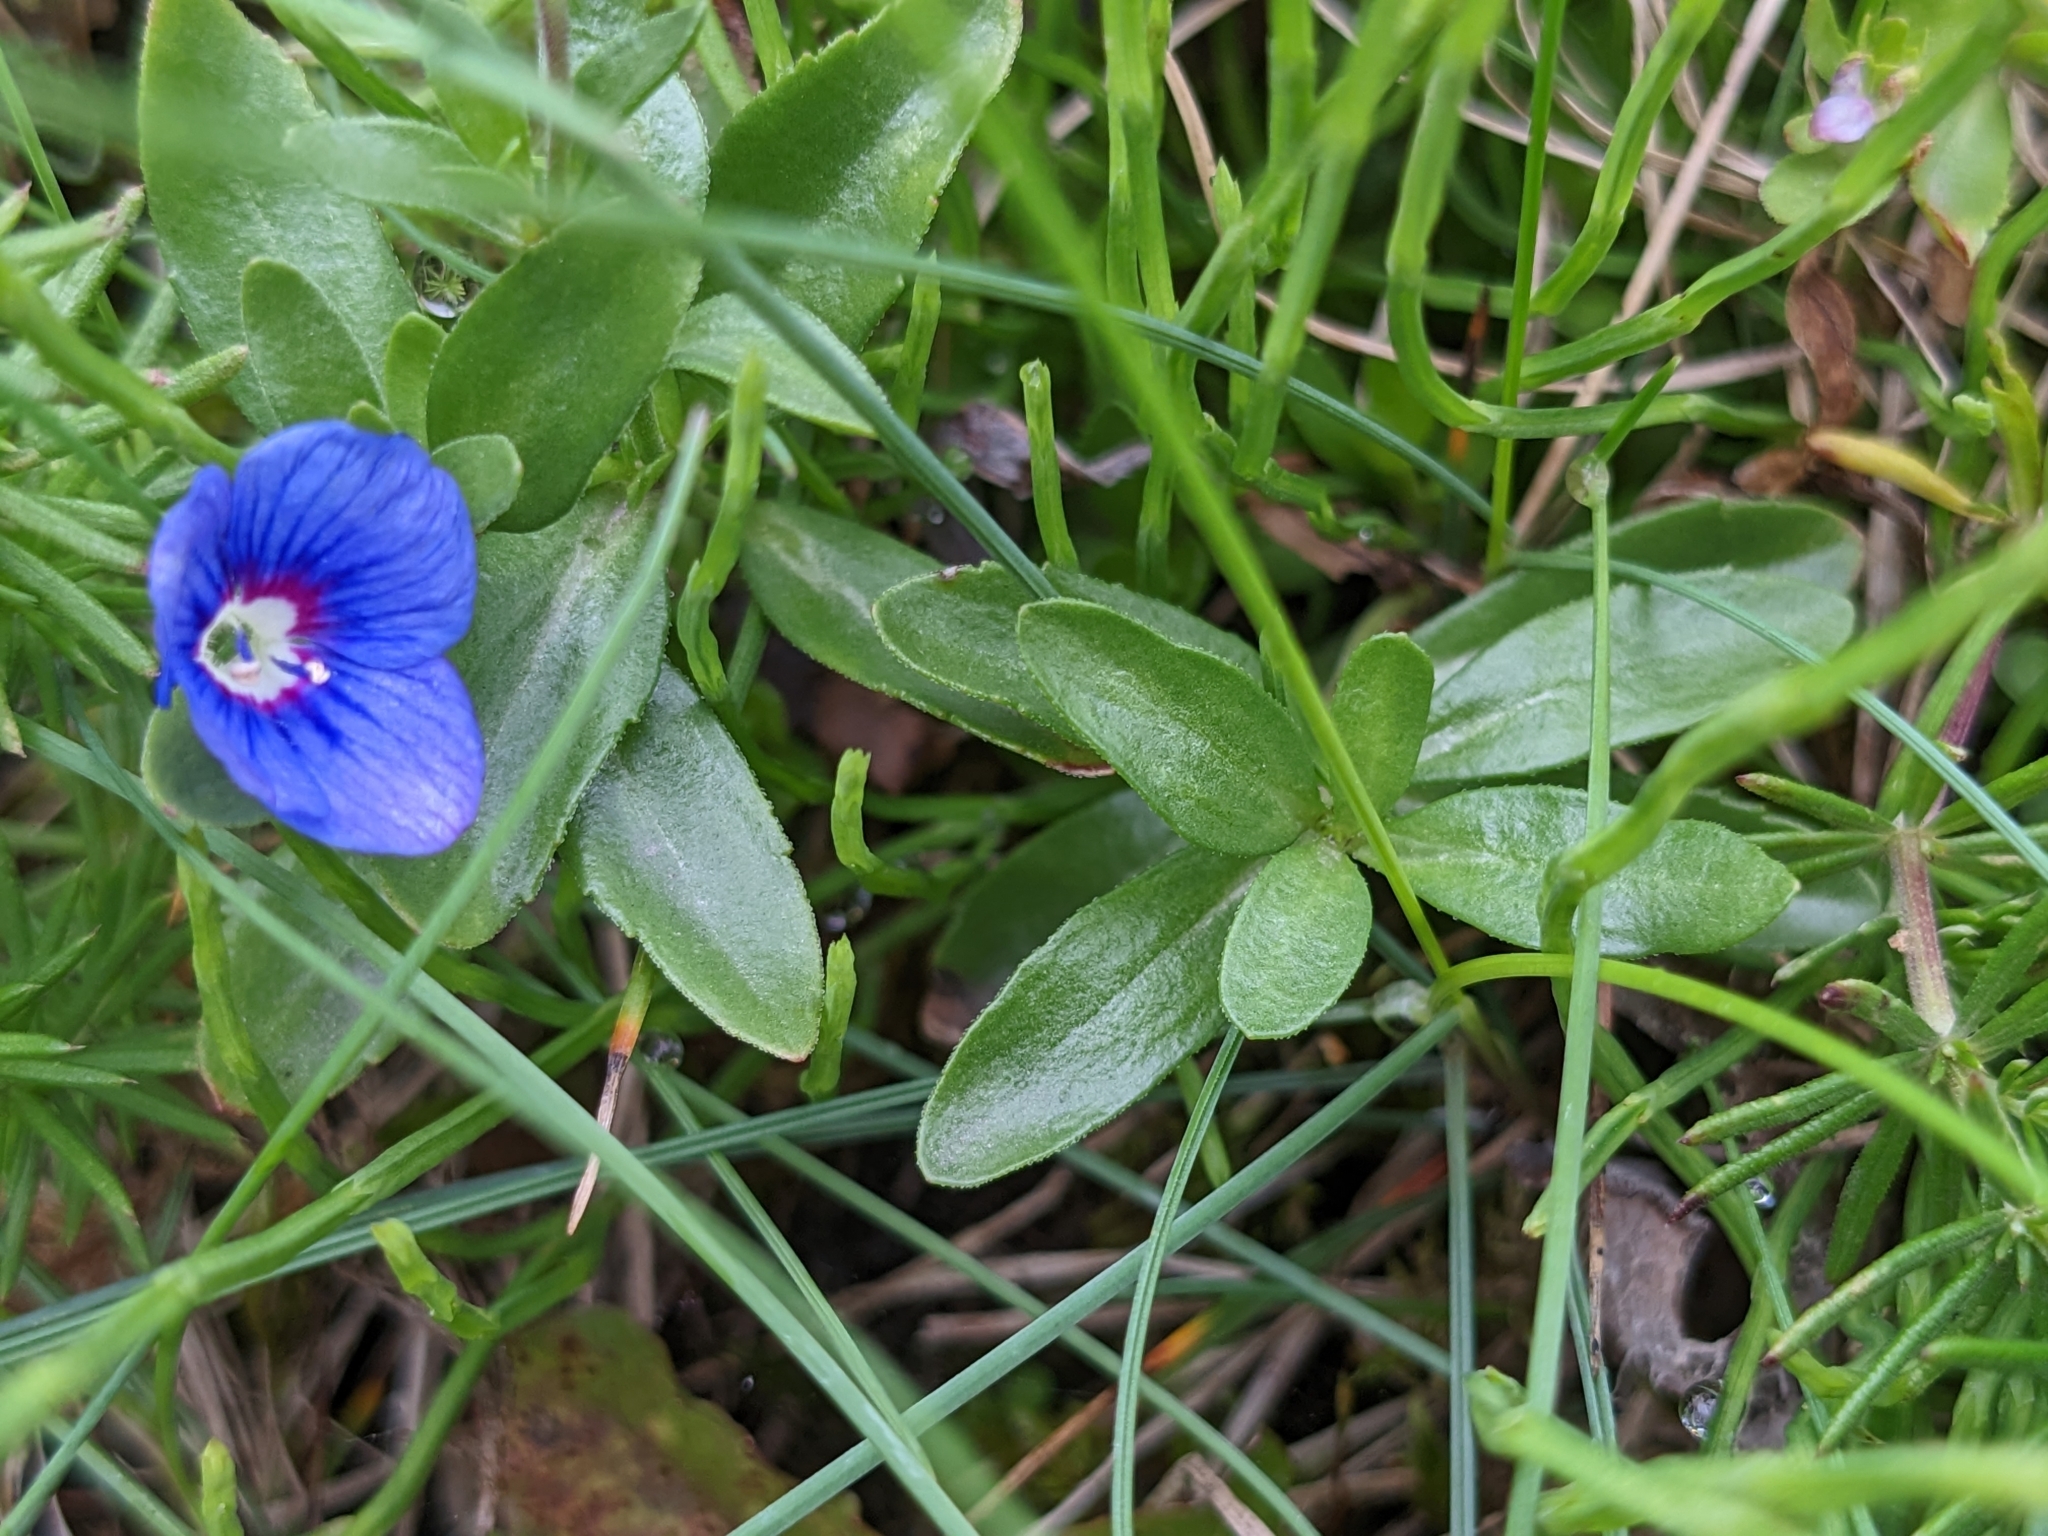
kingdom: Plantae
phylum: Tracheophyta
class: Magnoliopsida
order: Lamiales
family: Plantaginaceae
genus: Veronica
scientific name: Veronica fruticans
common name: Rock speedwell
